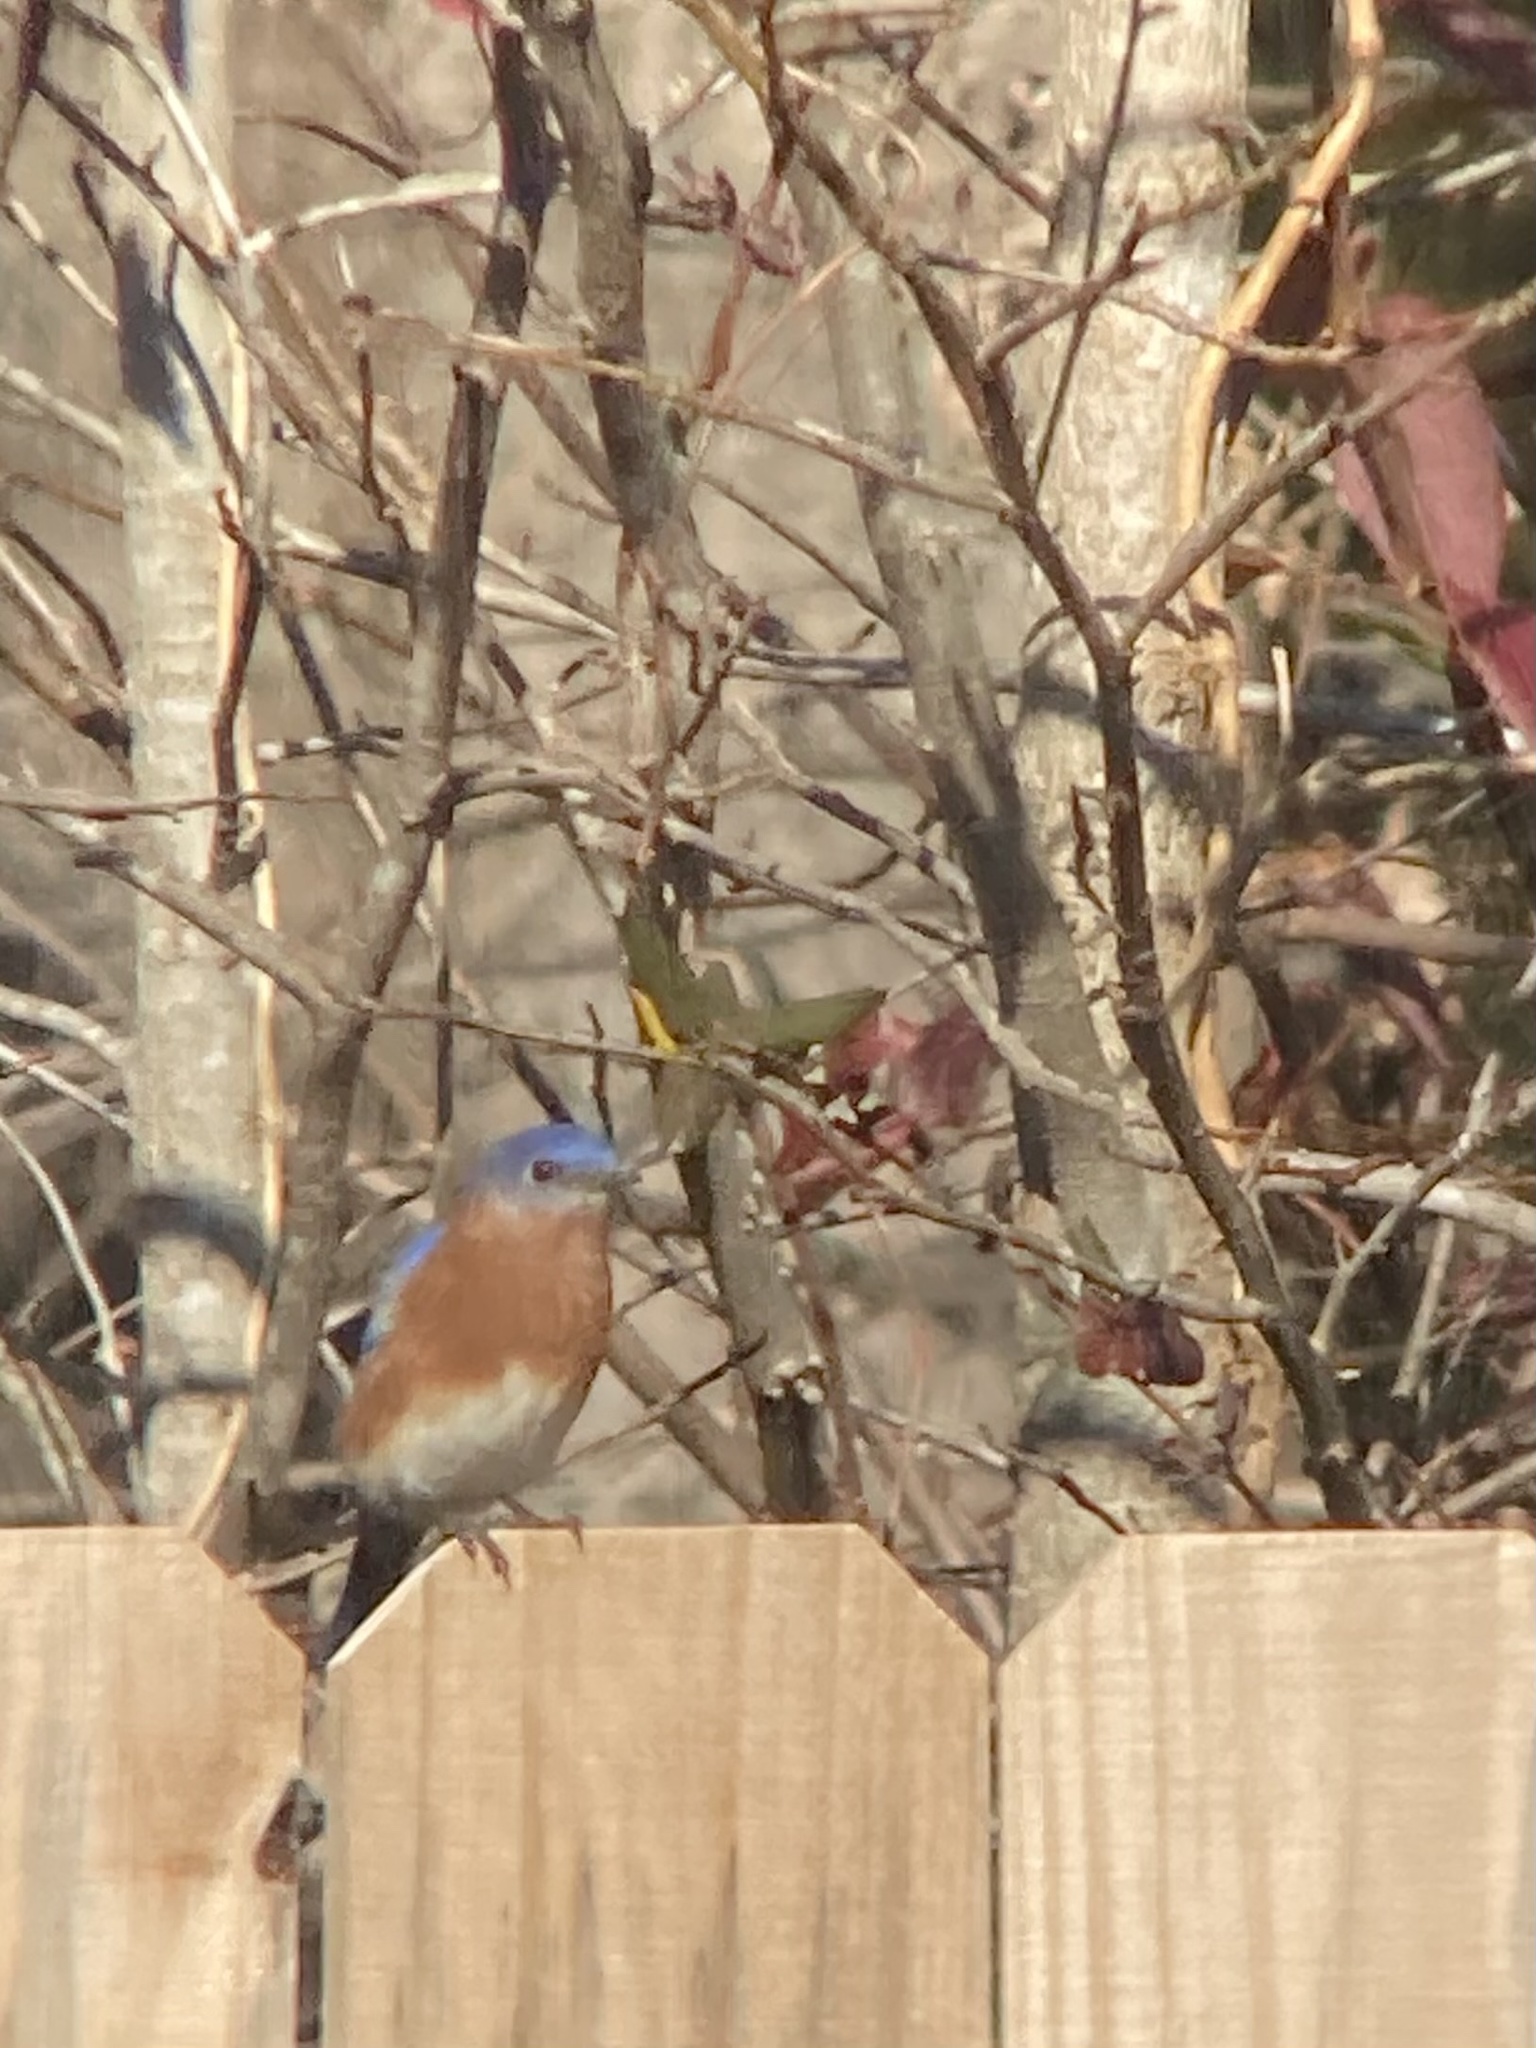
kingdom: Animalia
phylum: Chordata
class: Aves
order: Passeriformes
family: Turdidae
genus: Sialia
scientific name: Sialia sialis
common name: Eastern bluebird
